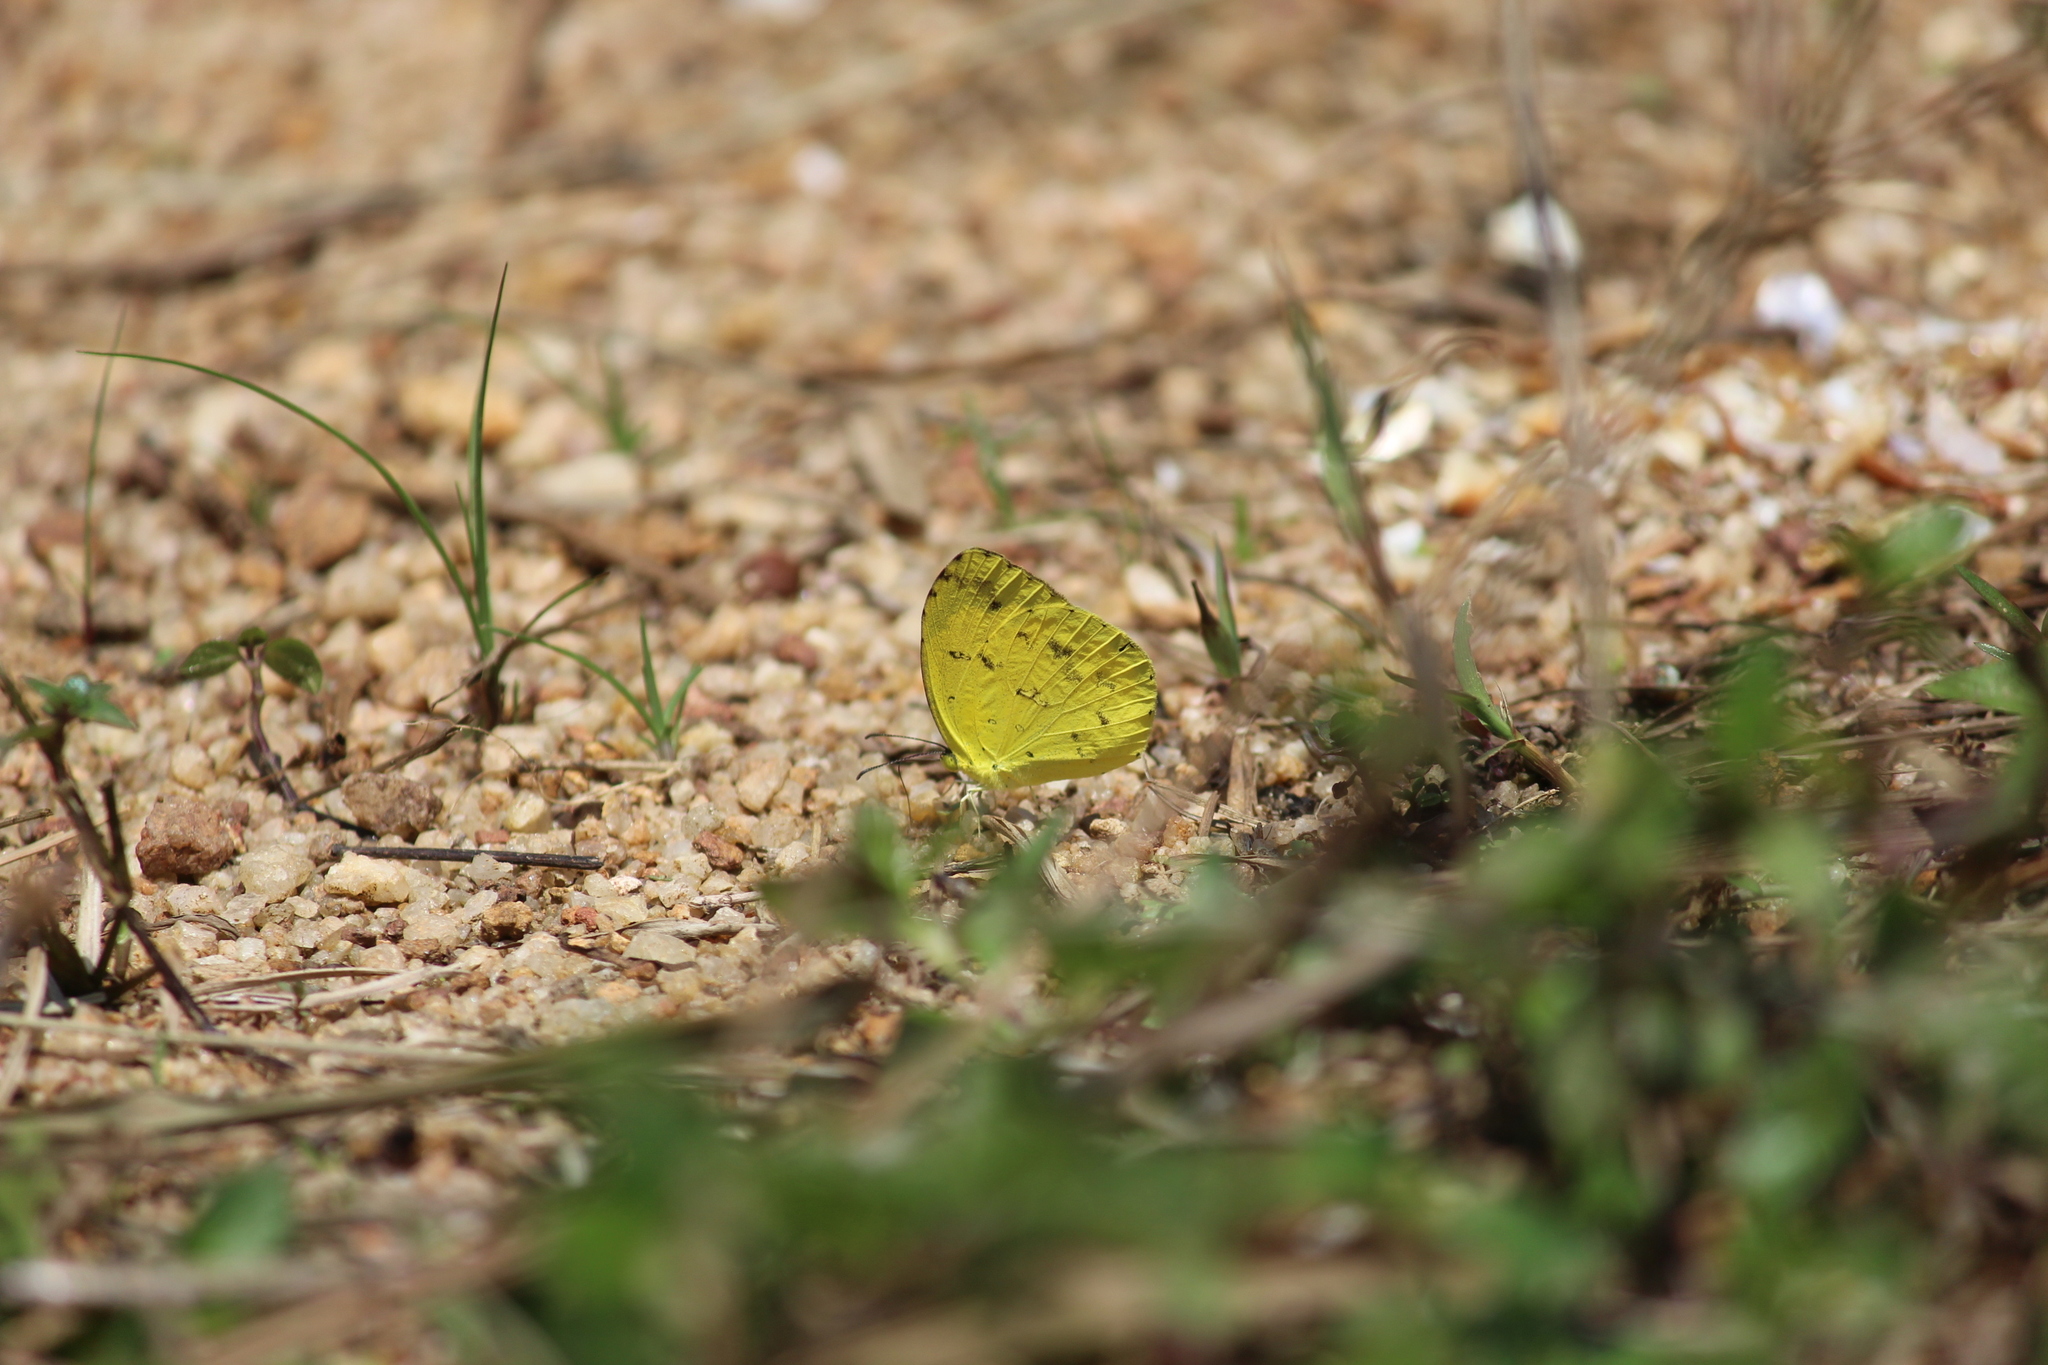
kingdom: Animalia
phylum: Arthropoda
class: Insecta
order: Lepidoptera
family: Pieridae
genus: Eurema
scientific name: Eurema andersoni
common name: One-spot yellow grass
